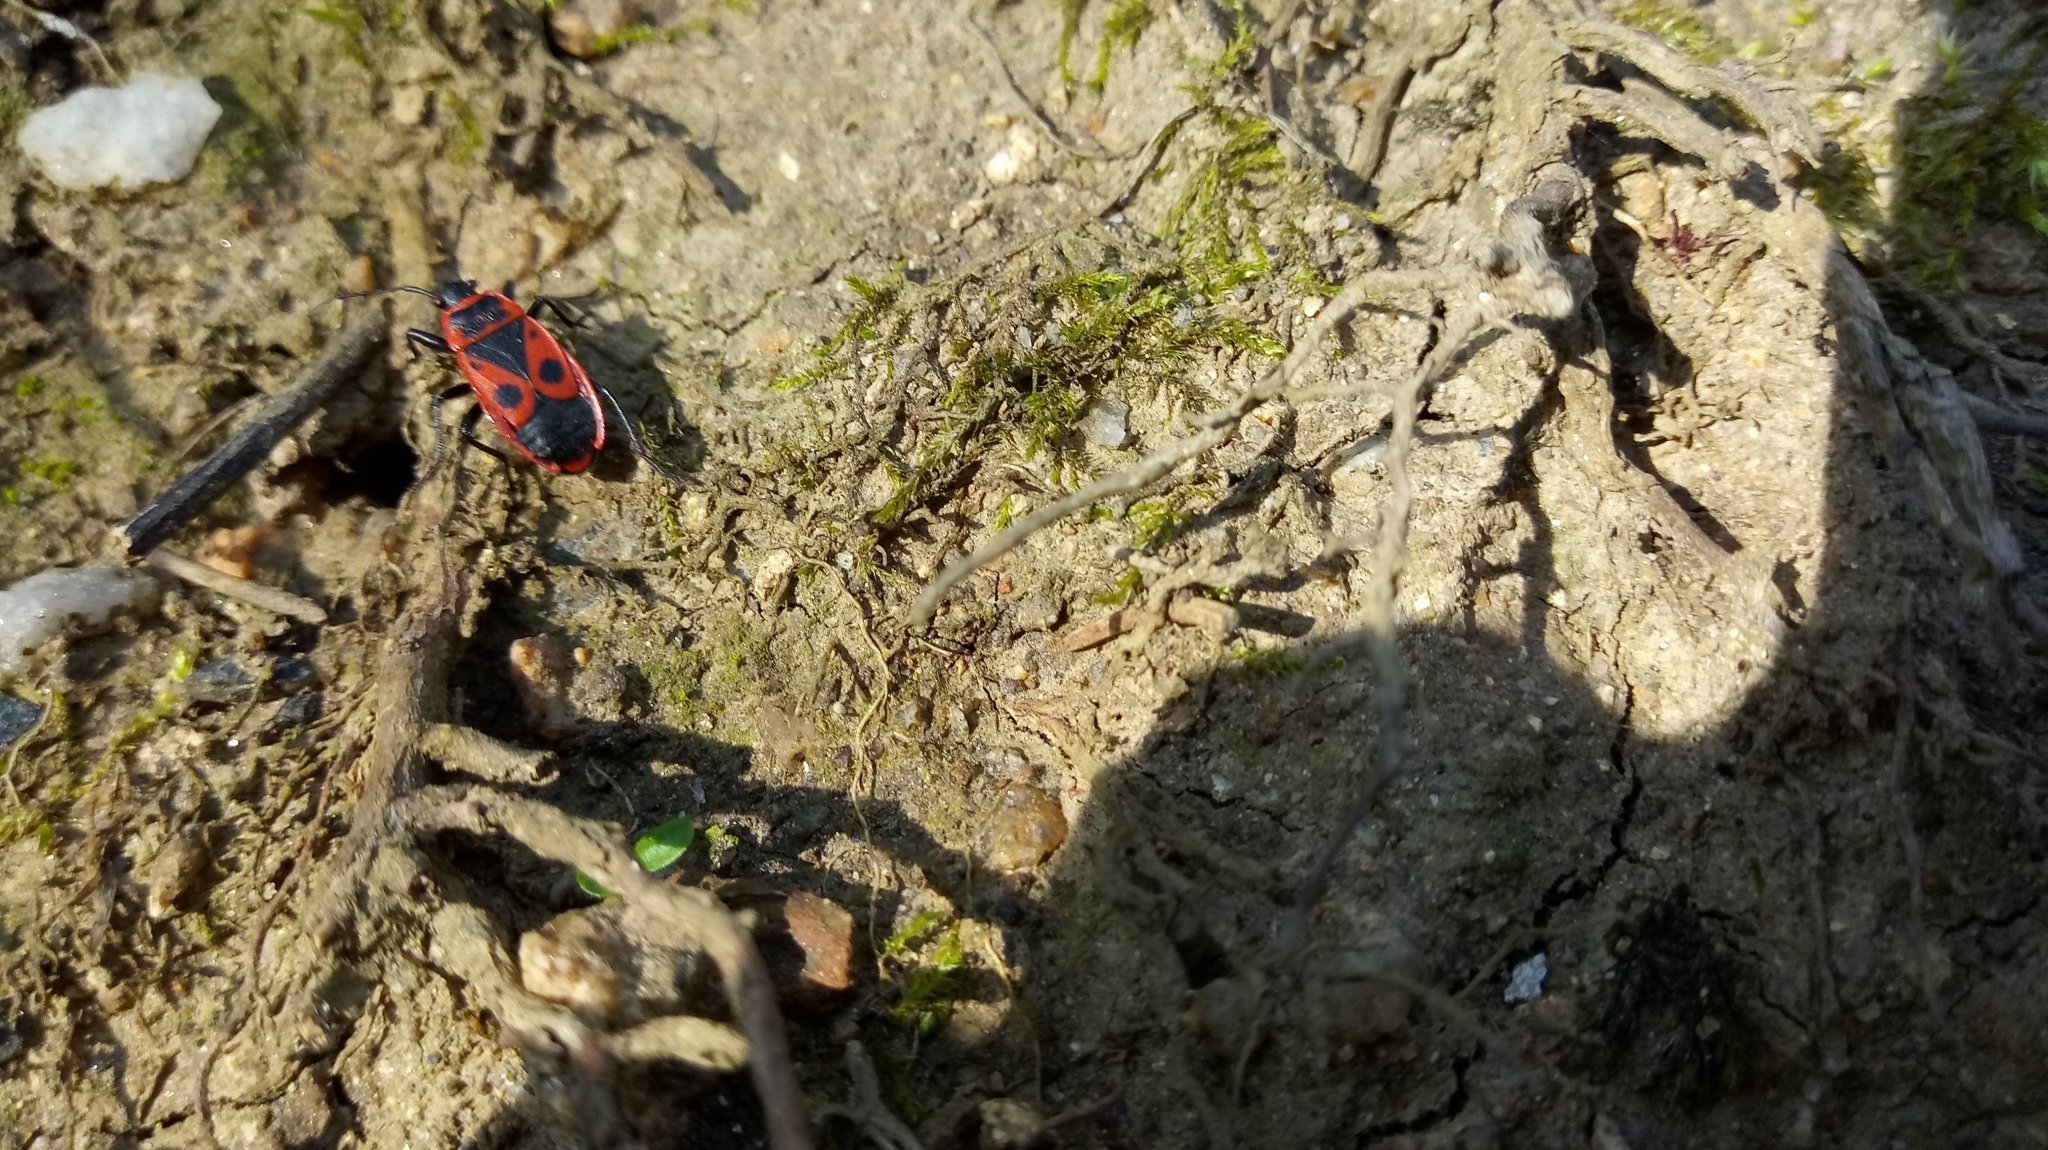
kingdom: Animalia
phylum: Arthropoda
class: Insecta
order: Hemiptera
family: Pyrrhocoridae
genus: Pyrrhocoris
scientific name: Pyrrhocoris apterus
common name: Firebug
